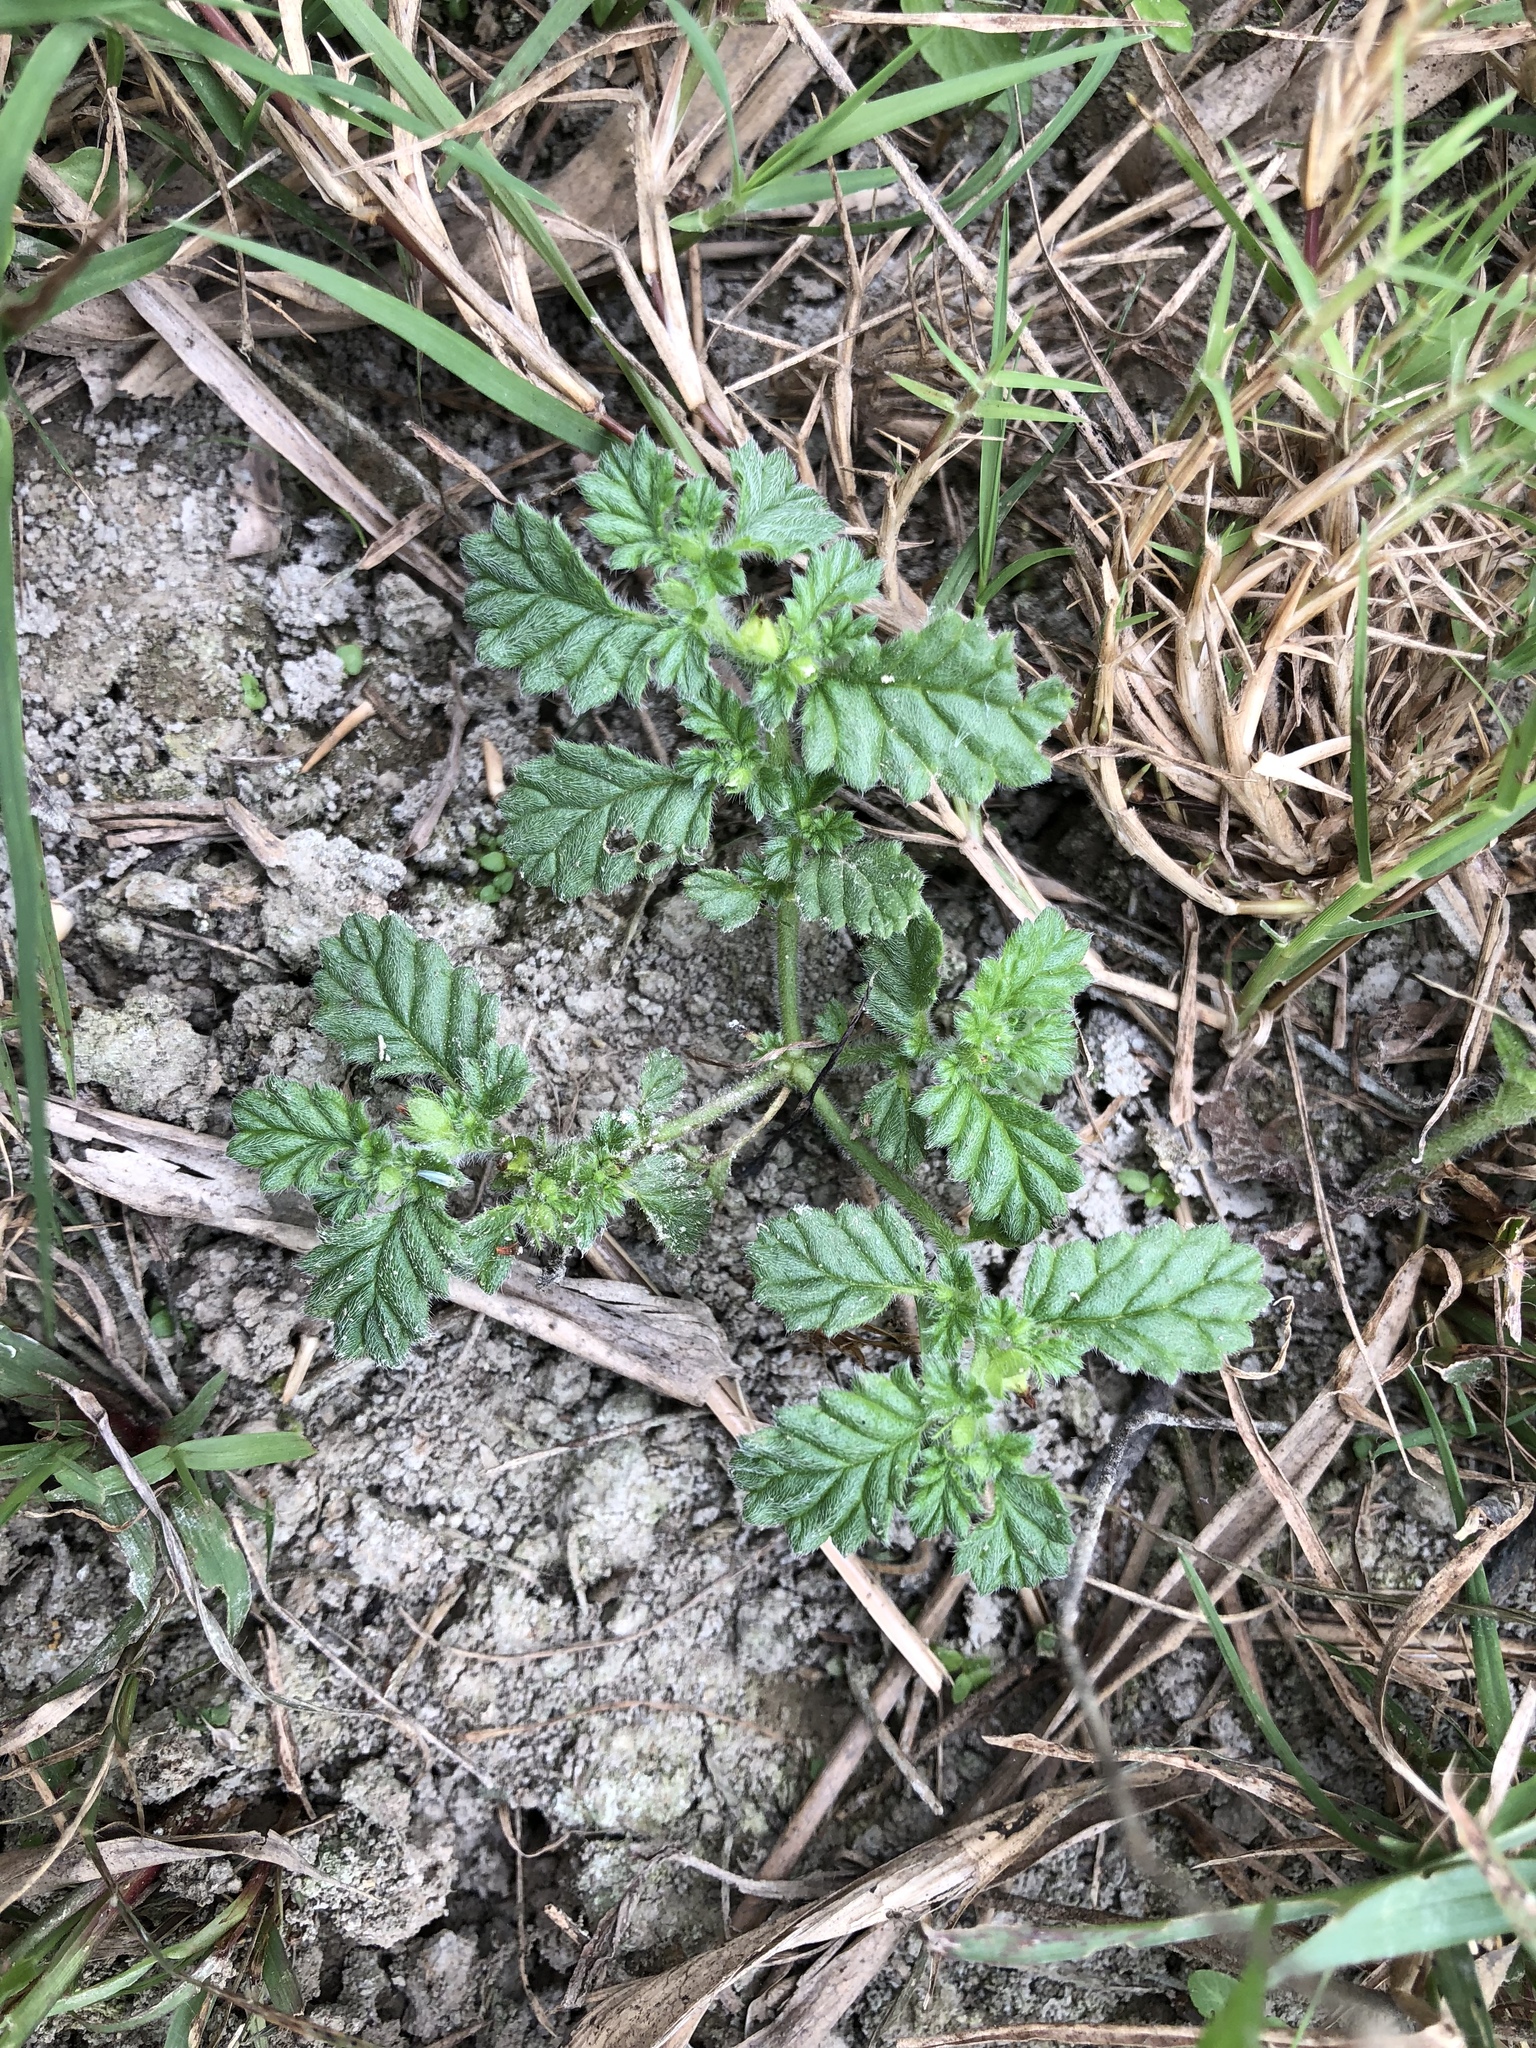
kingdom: Plantae
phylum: Tracheophyta
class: Magnoliopsida
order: Boraginales
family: Coldeniaceae
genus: Coldenia
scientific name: Coldenia procumbens
